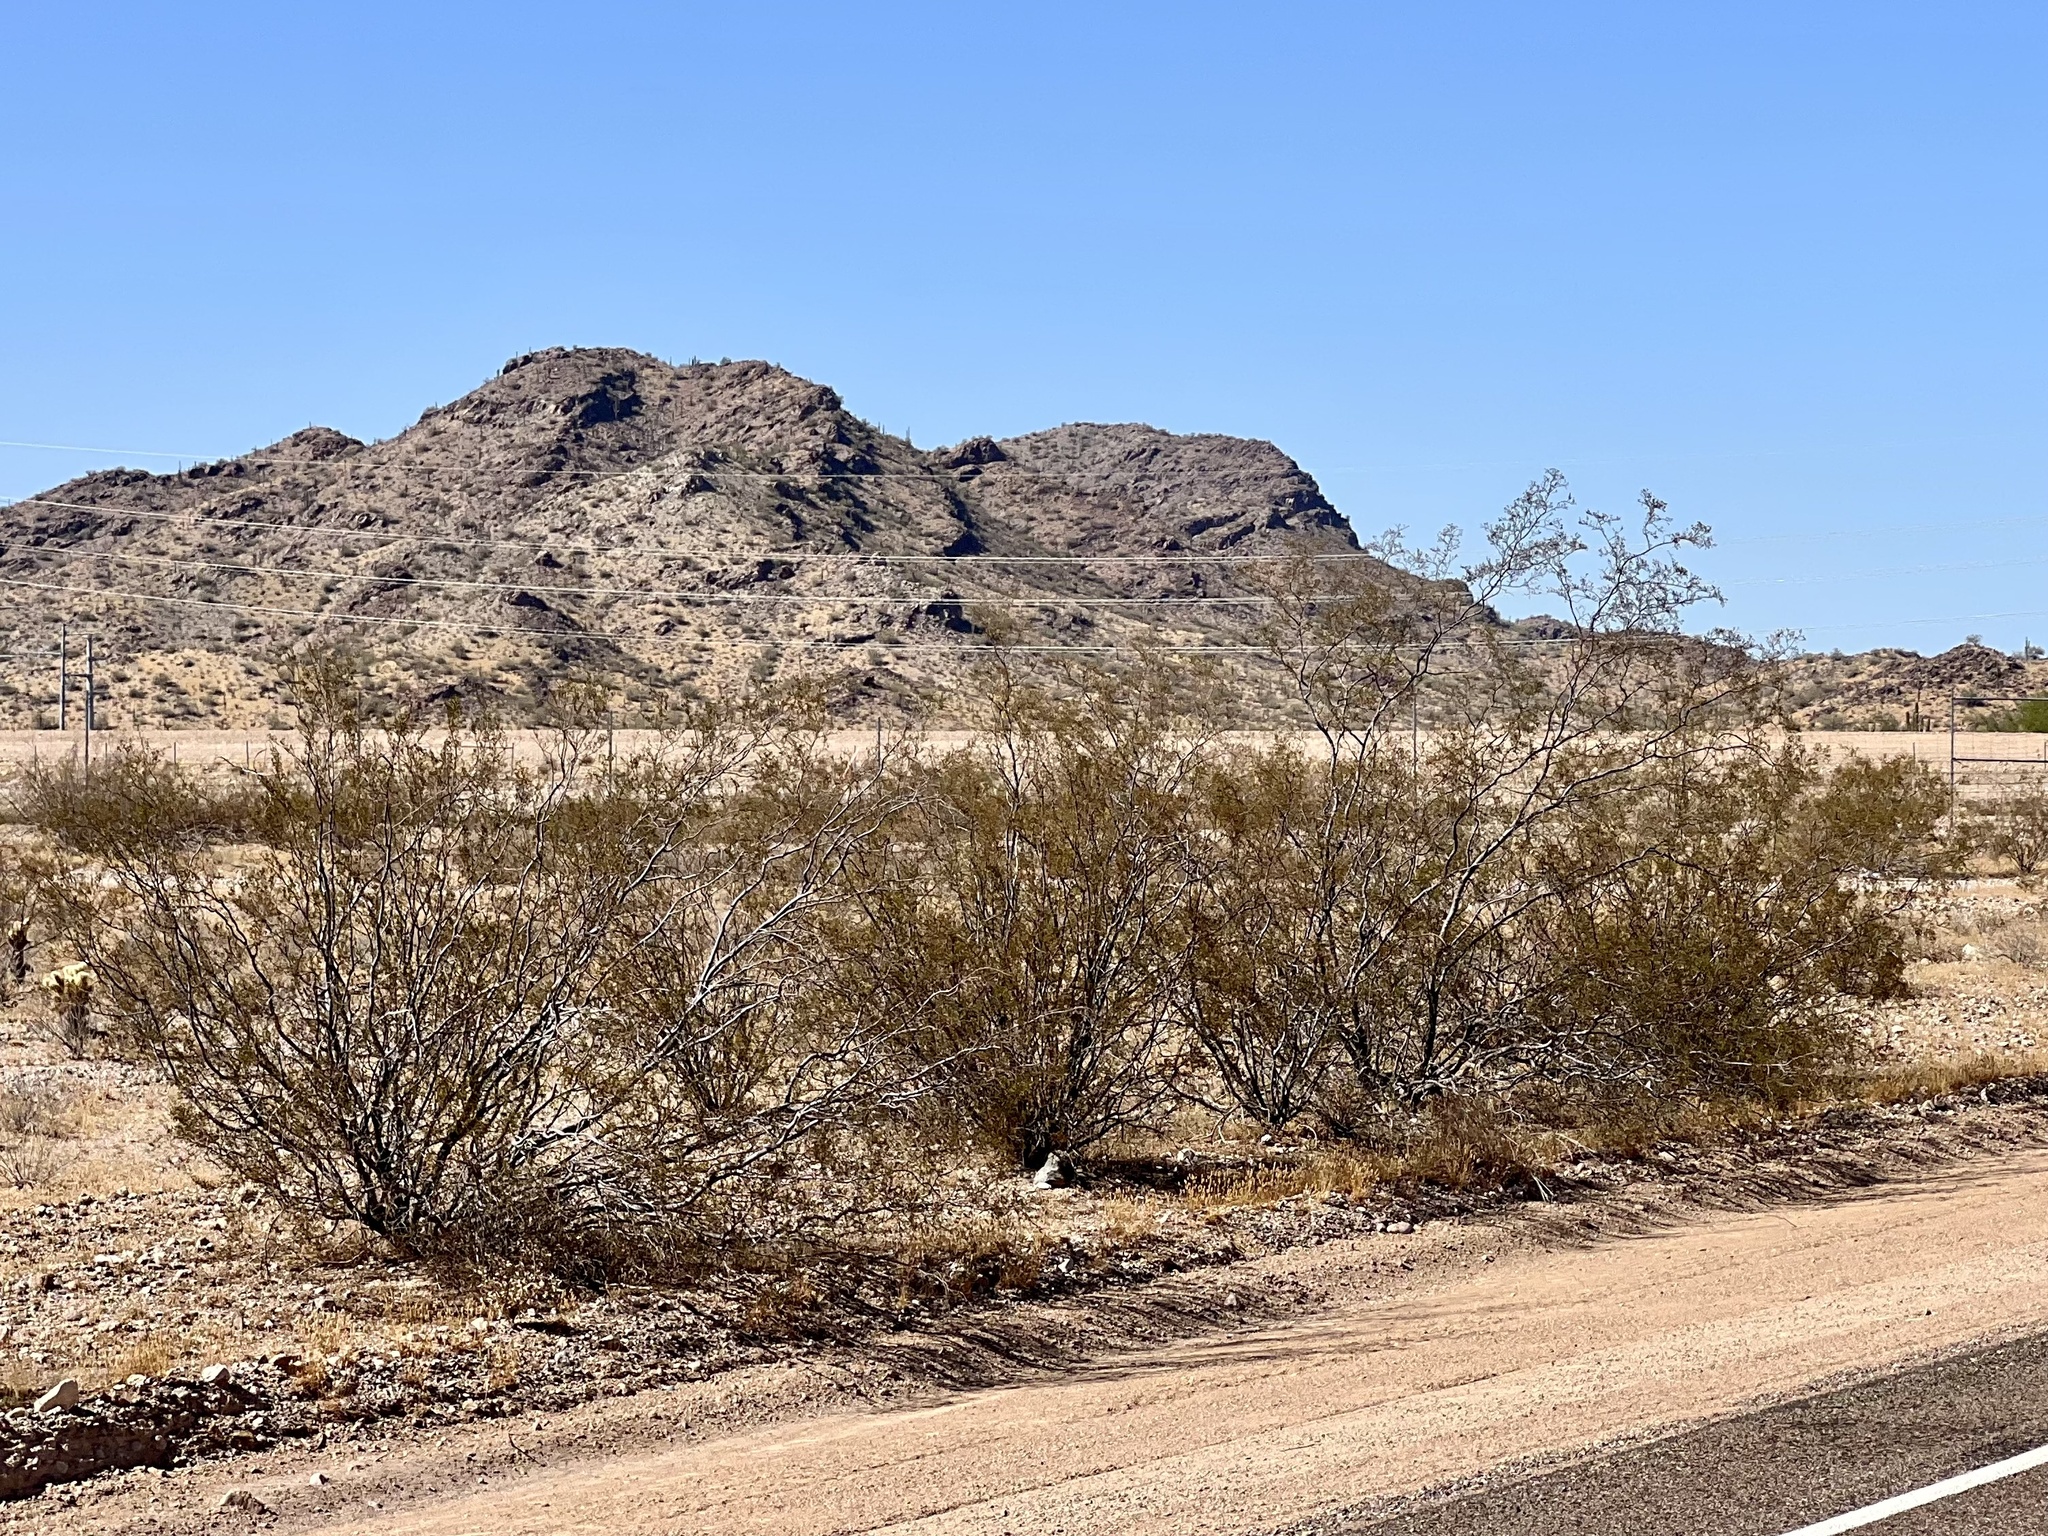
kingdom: Plantae
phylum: Tracheophyta
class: Magnoliopsida
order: Zygophyllales
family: Zygophyllaceae
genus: Larrea
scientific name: Larrea tridentata
